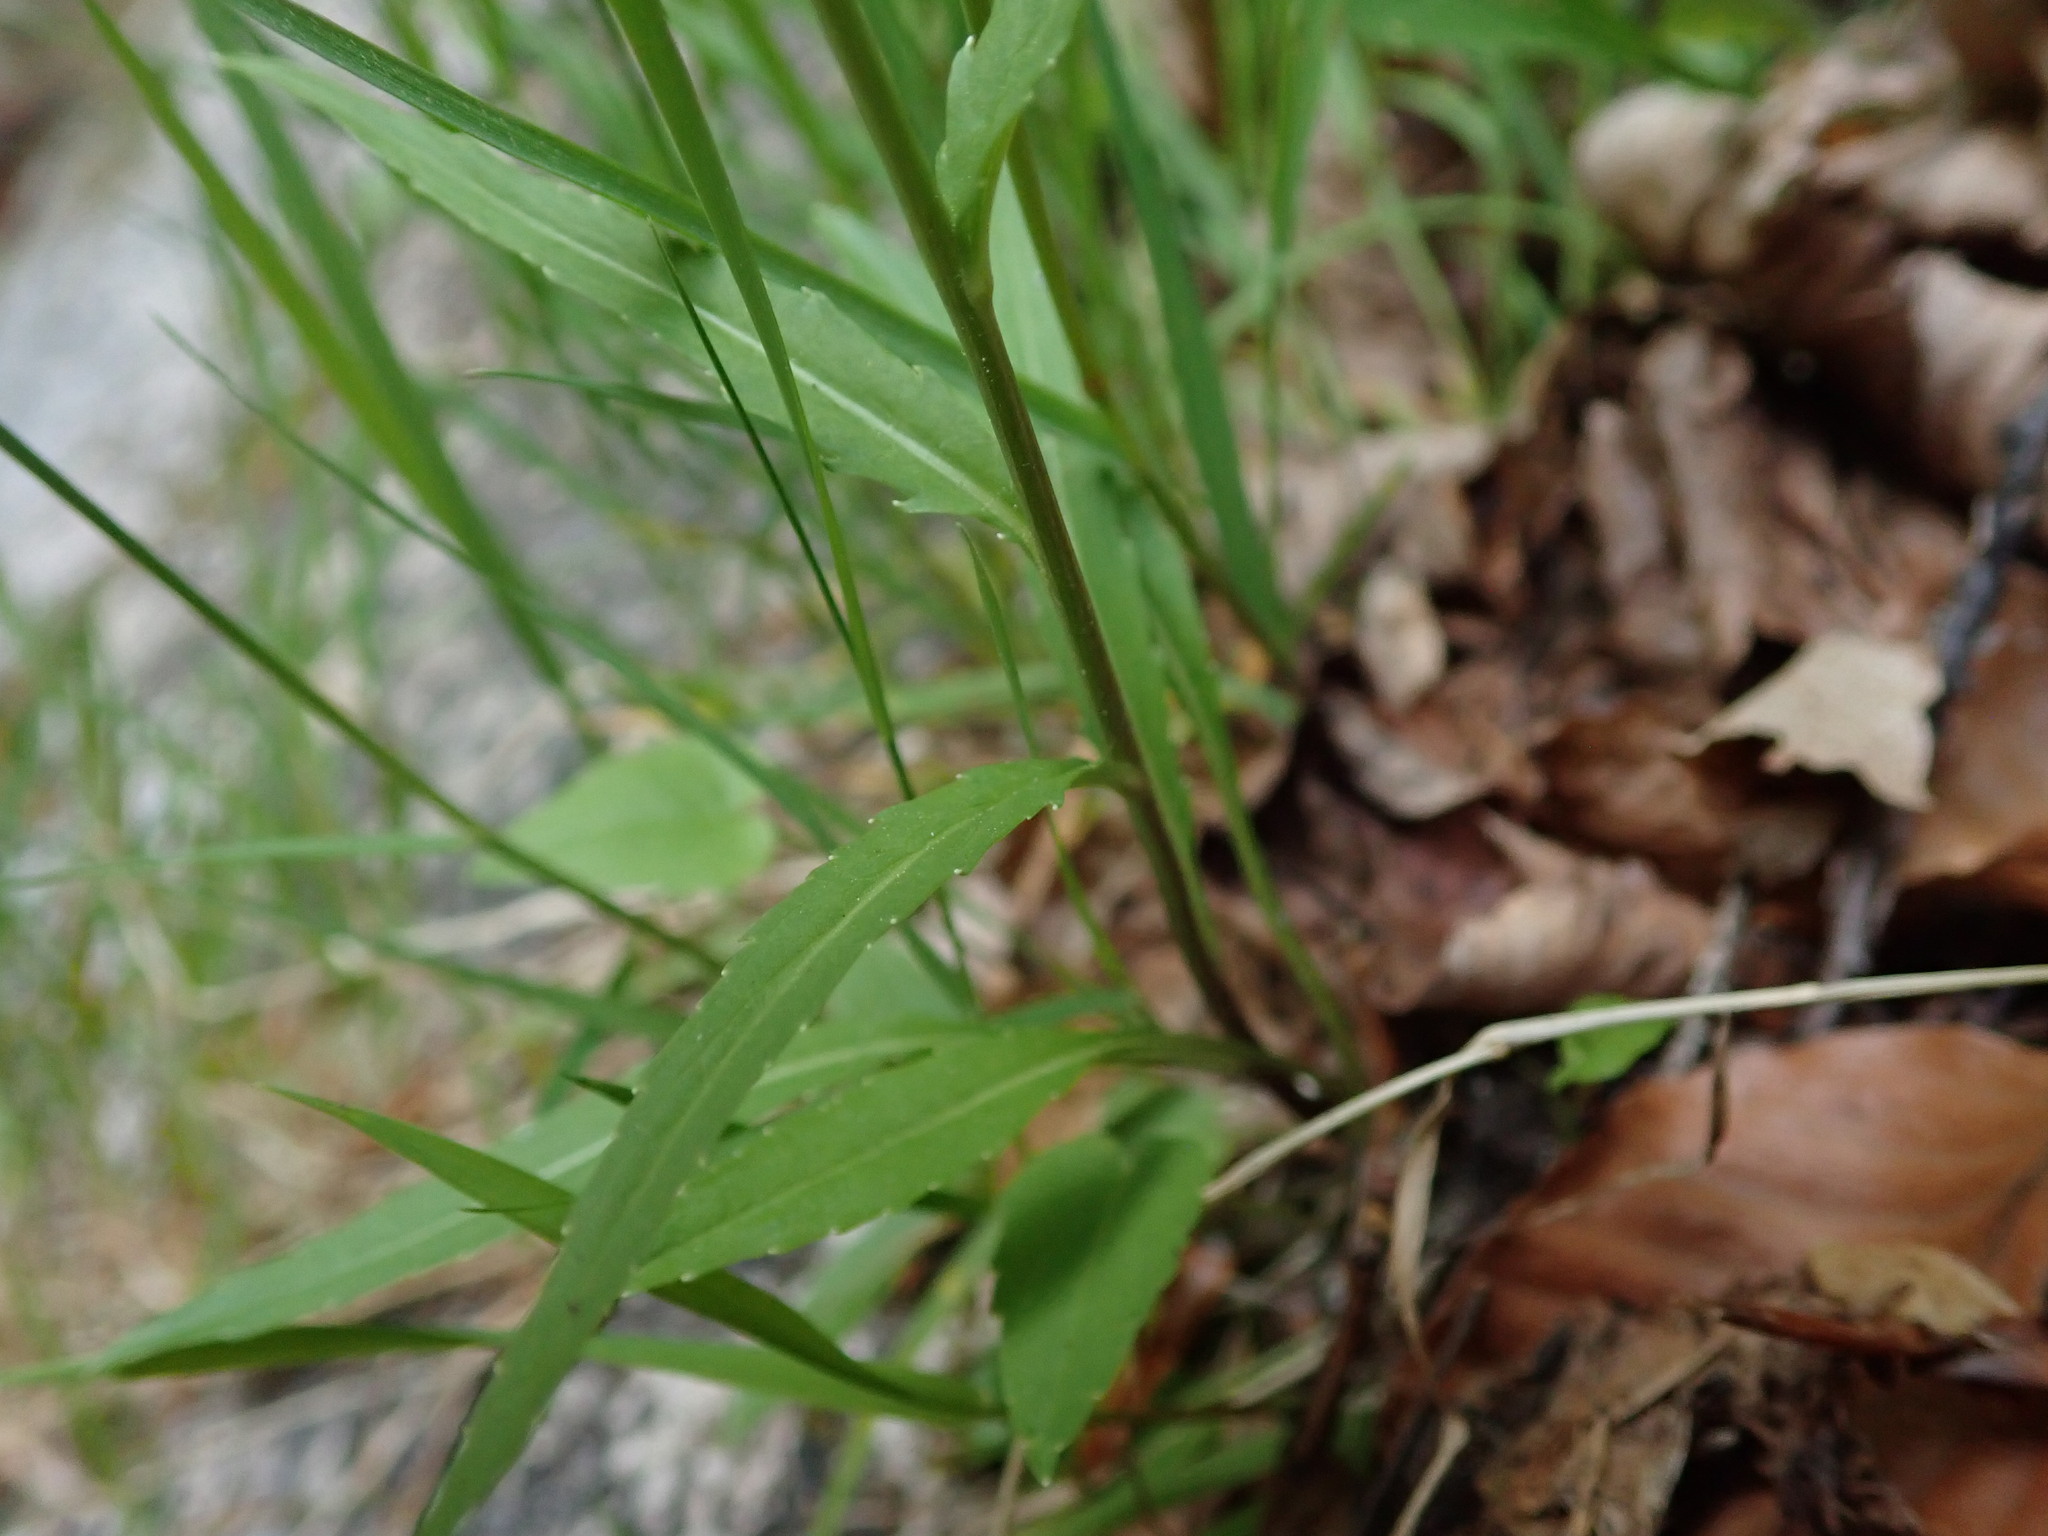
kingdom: Plantae
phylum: Tracheophyta
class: Magnoliopsida
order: Asterales
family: Campanulaceae
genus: Phyteuma
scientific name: Phyteuma orbiculare
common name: Round-headed rampion
